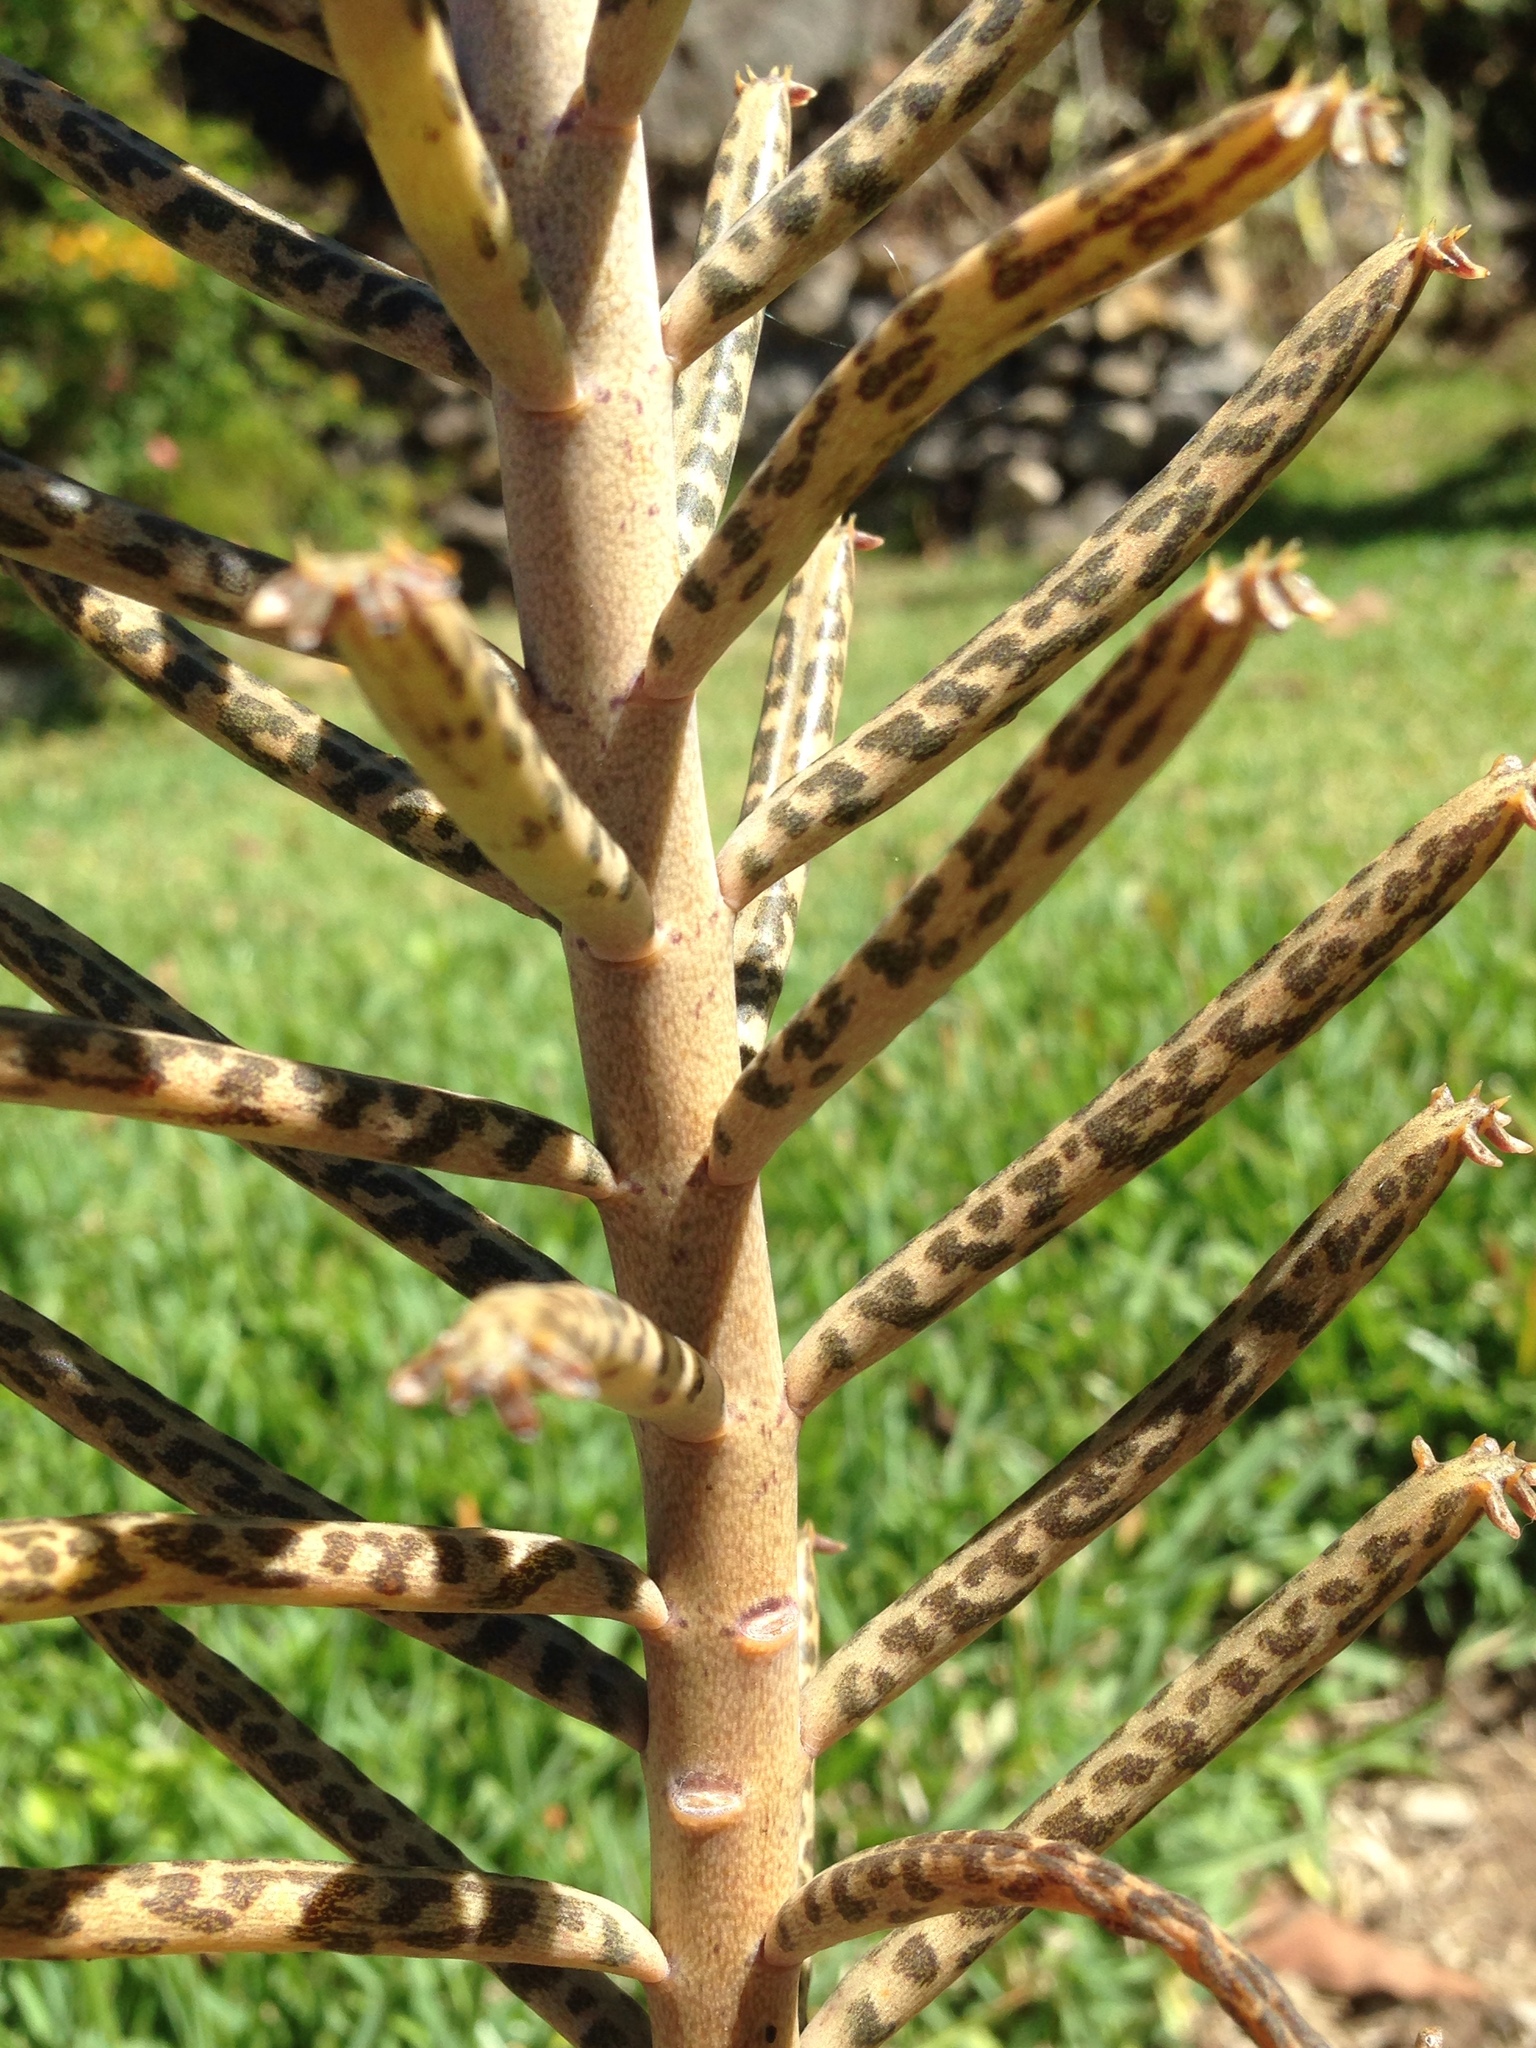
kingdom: Plantae
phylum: Tracheophyta
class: Magnoliopsida
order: Saxifragales
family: Crassulaceae
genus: Kalanchoe
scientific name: Kalanchoe delagoensis
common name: Chandelier plant
